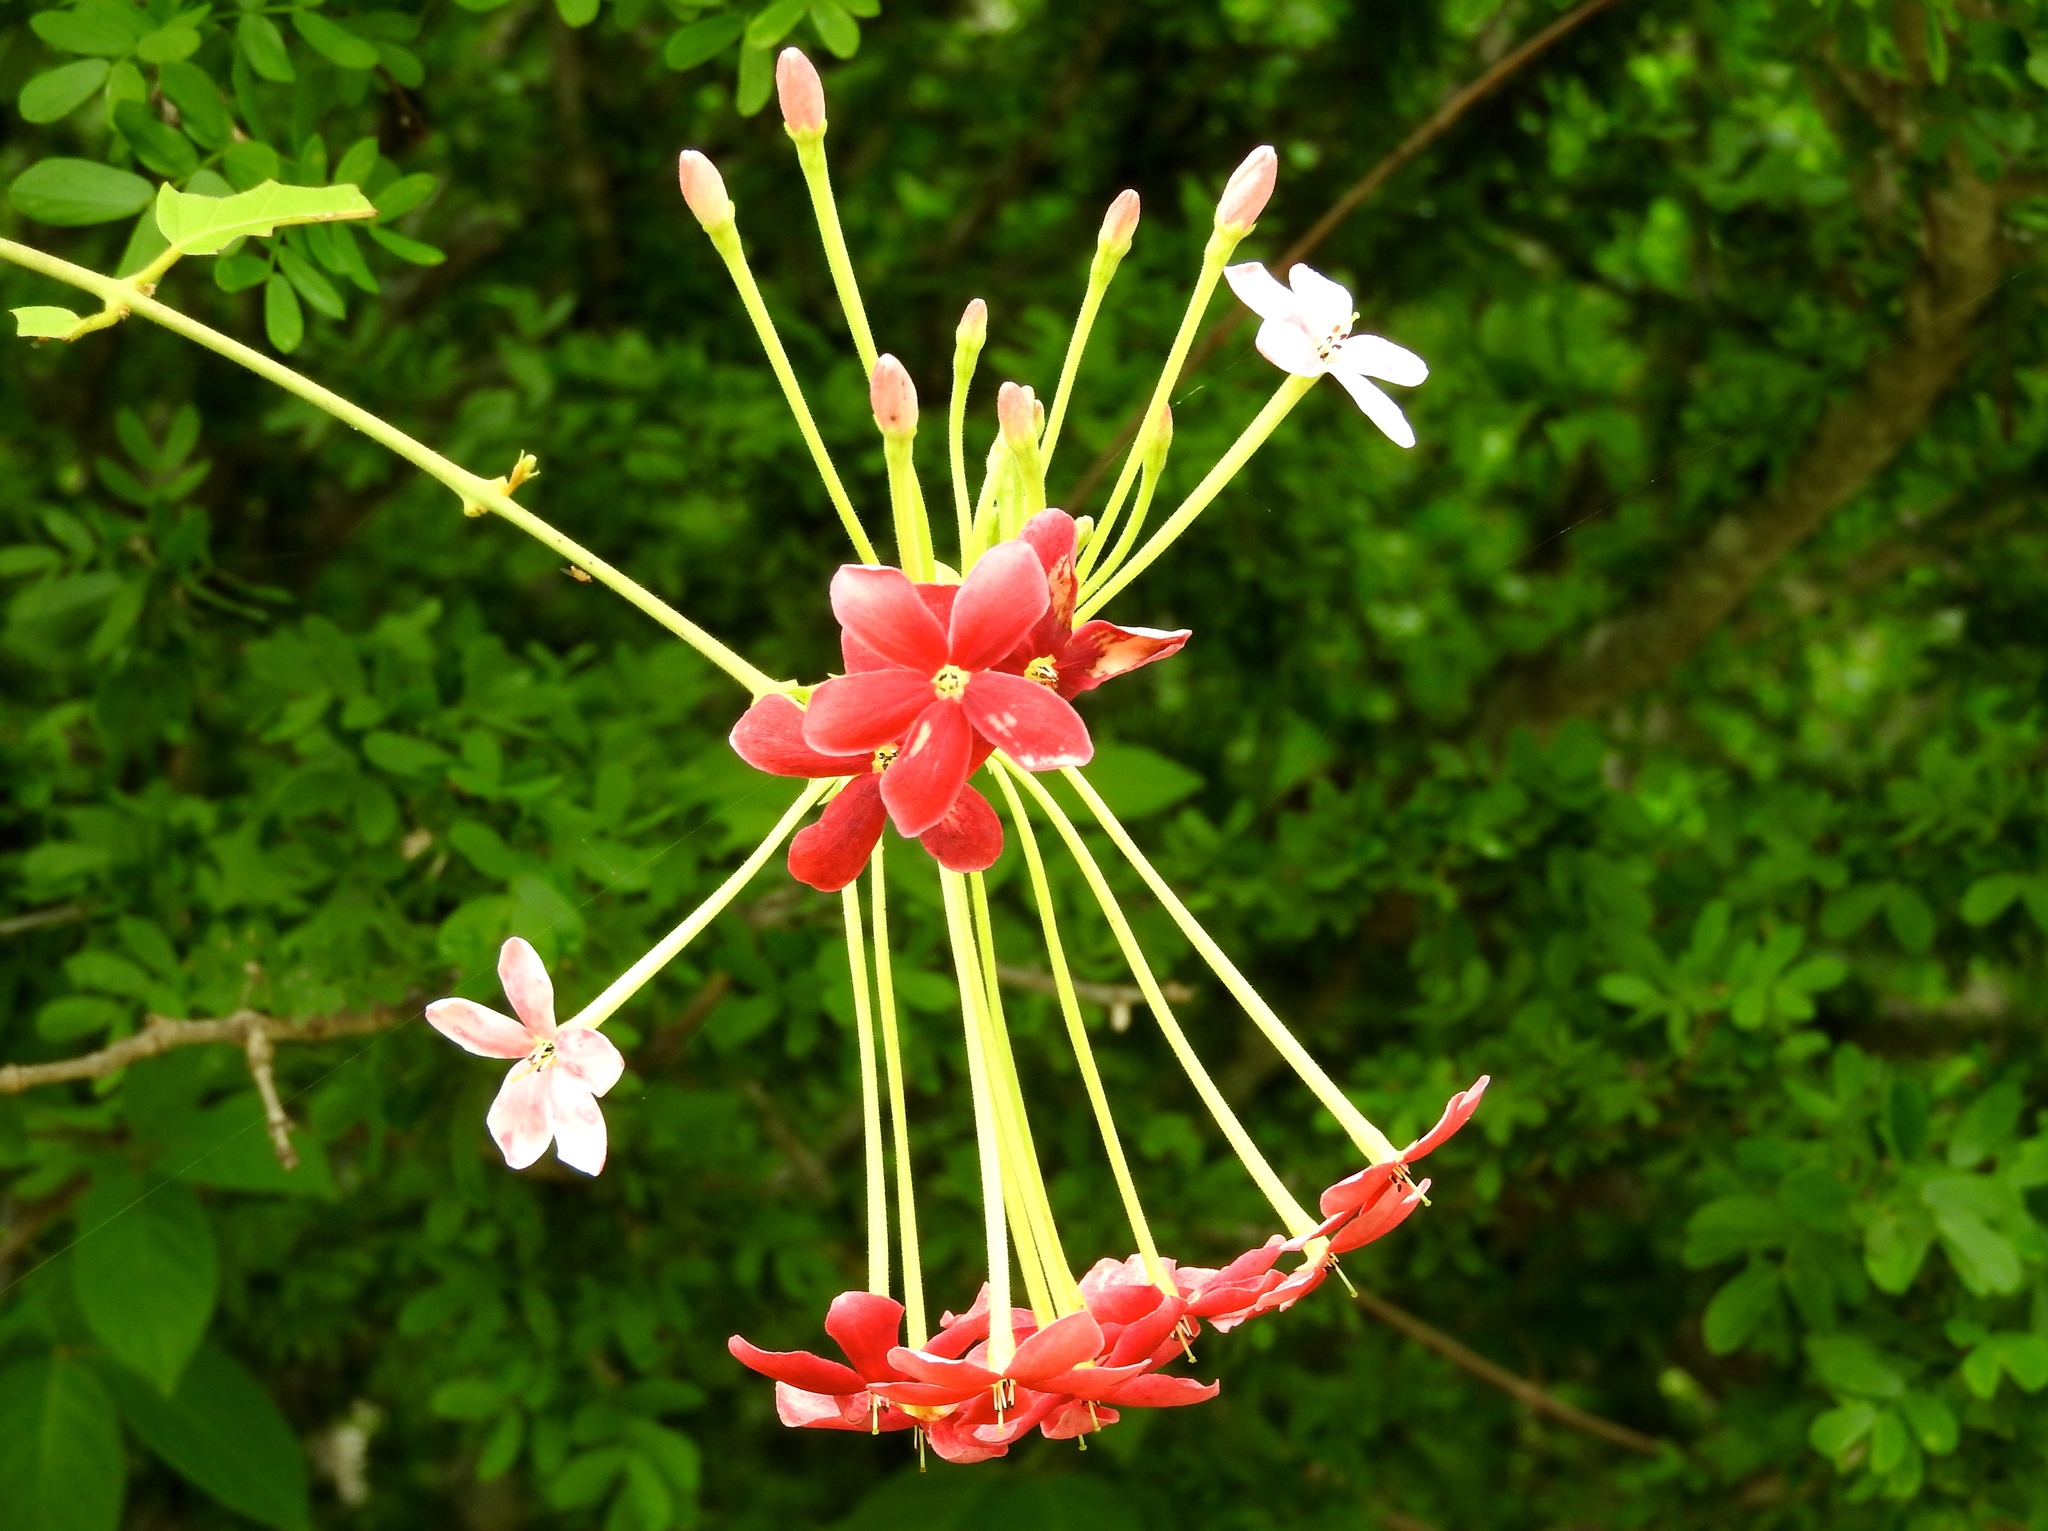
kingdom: Plantae
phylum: Tracheophyta
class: Magnoliopsida
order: Myrtales
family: Combretaceae
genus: Combretum
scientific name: Combretum indicum
